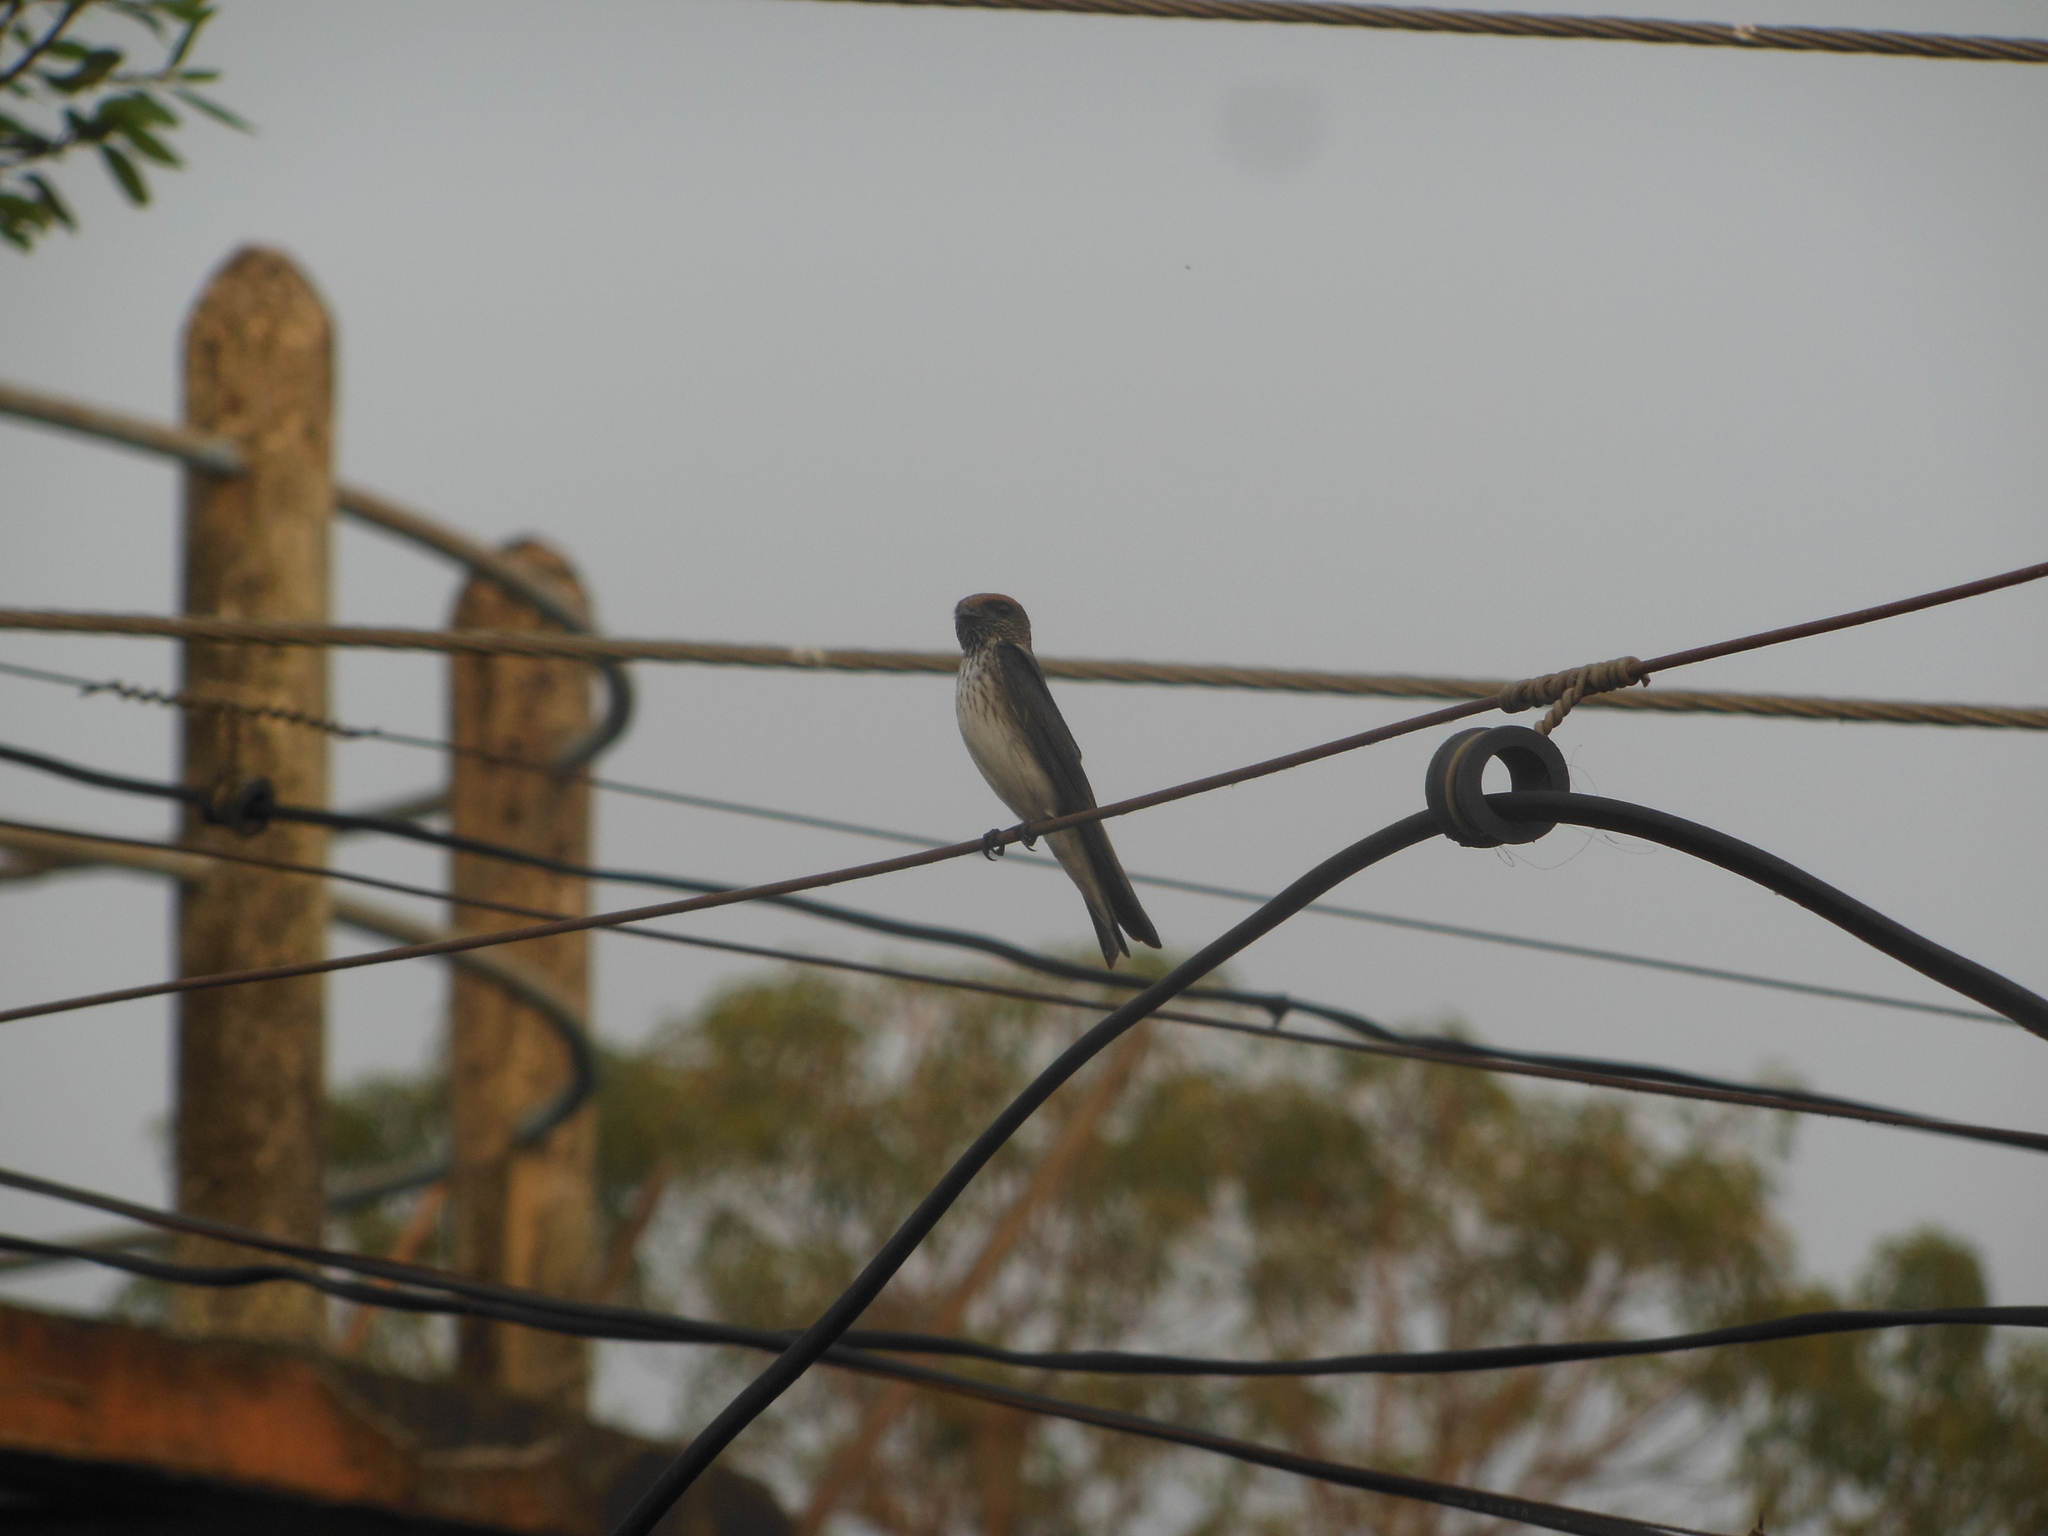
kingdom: Animalia
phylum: Chordata
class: Aves
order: Passeriformes
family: Hirundinidae
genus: Petrochelidon
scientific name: Petrochelidon fluvicola
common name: Streak-throated swallow
